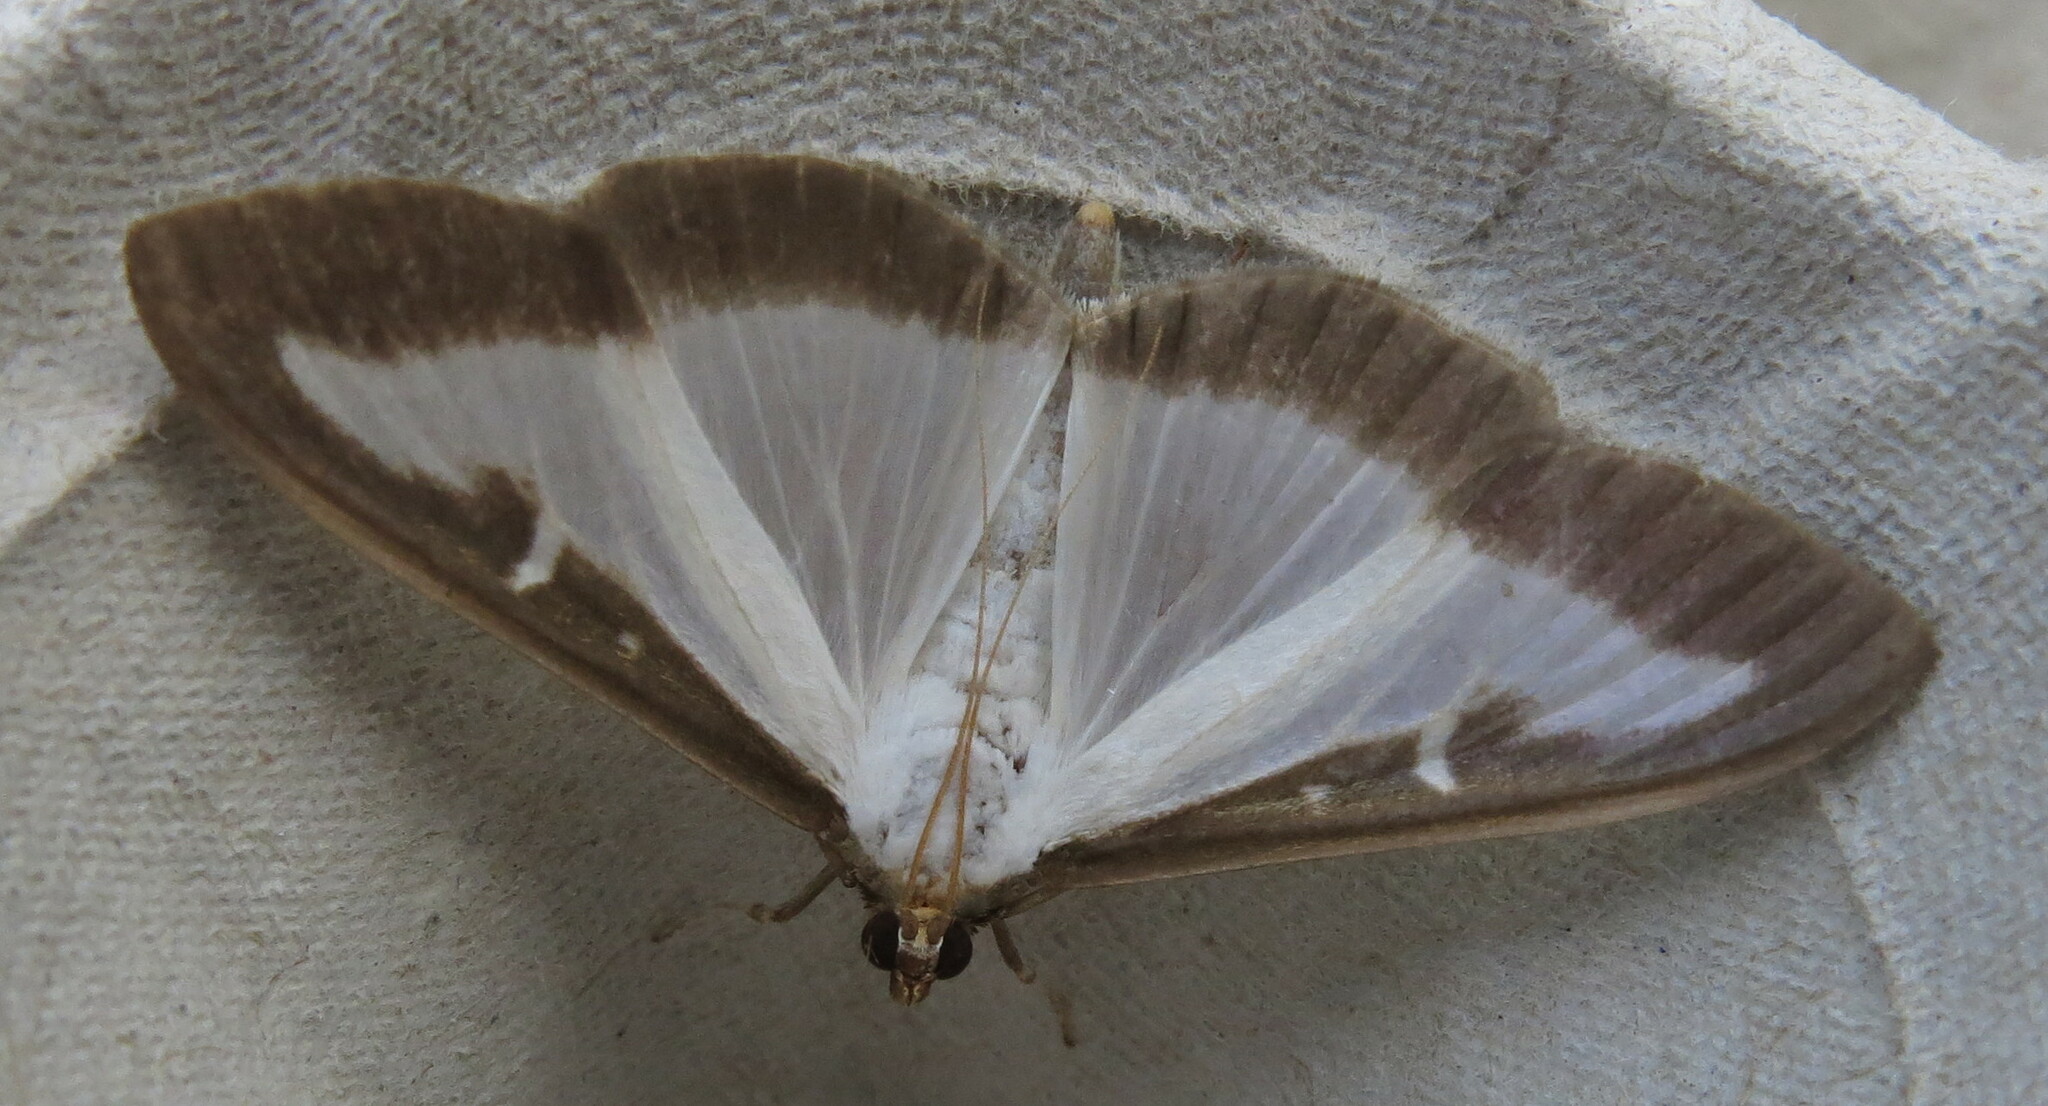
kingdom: Animalia
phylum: Arthropoda
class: Insecta
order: Lepidoptera
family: Crambidae
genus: Cydalima
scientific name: Cydalima perspectalis
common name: Box tree moth
